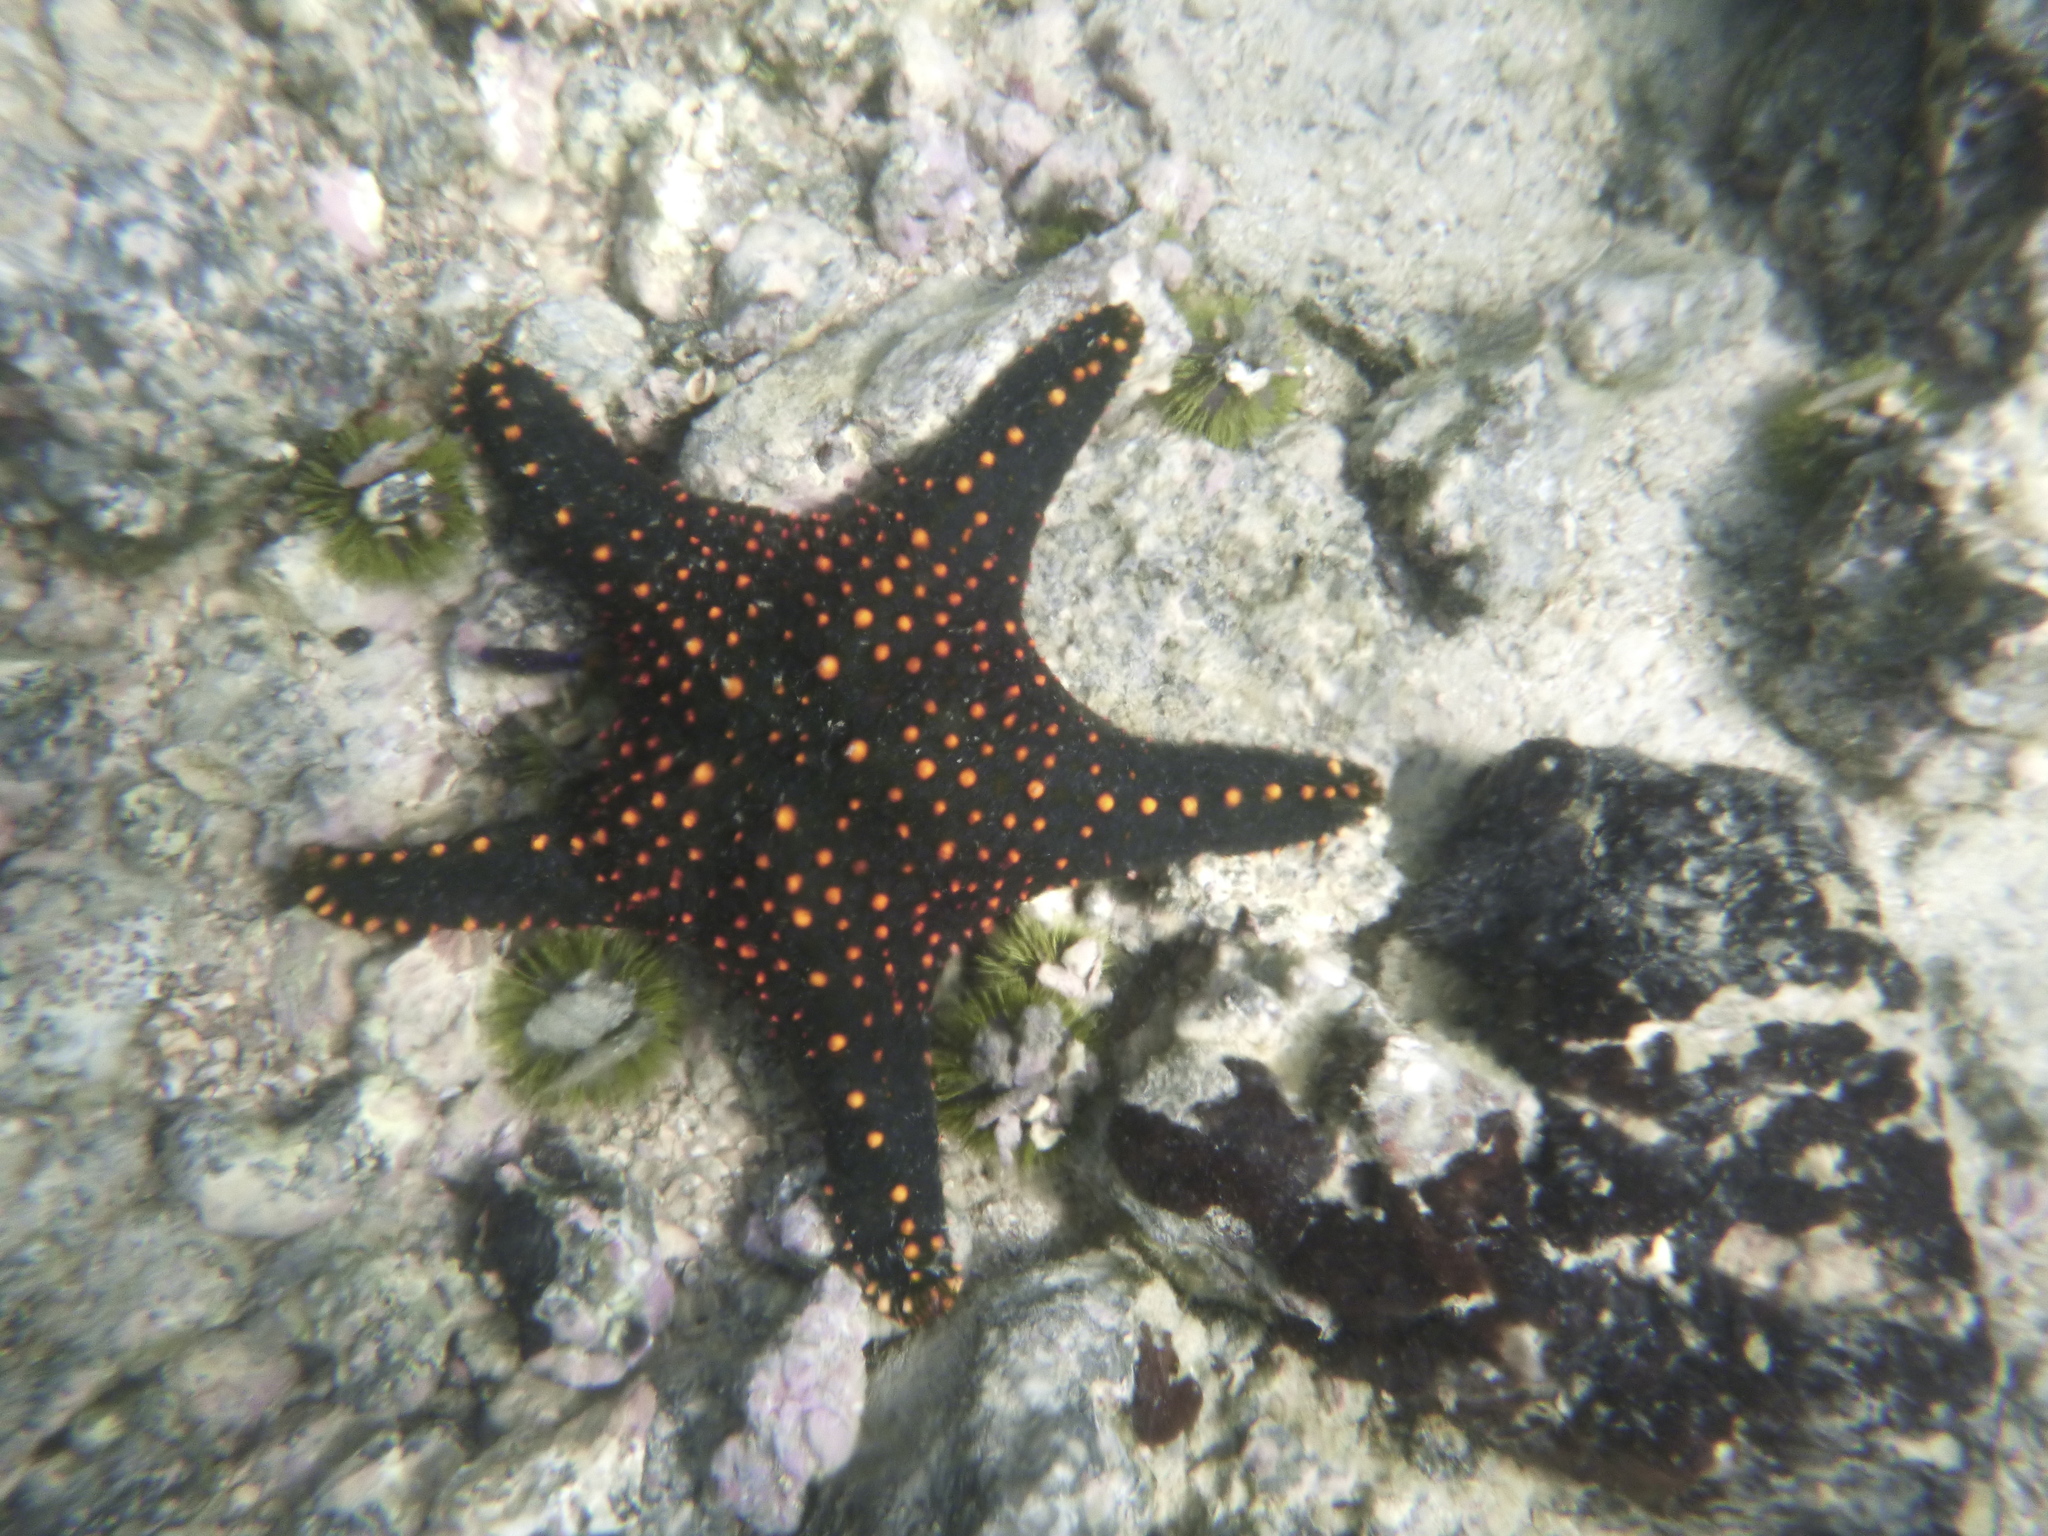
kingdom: Animalia
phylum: Echinodermata
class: Asteroidea
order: Valvatida
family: Oreasteridae
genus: Pentaceraster
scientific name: Pentaceraster cumingi
